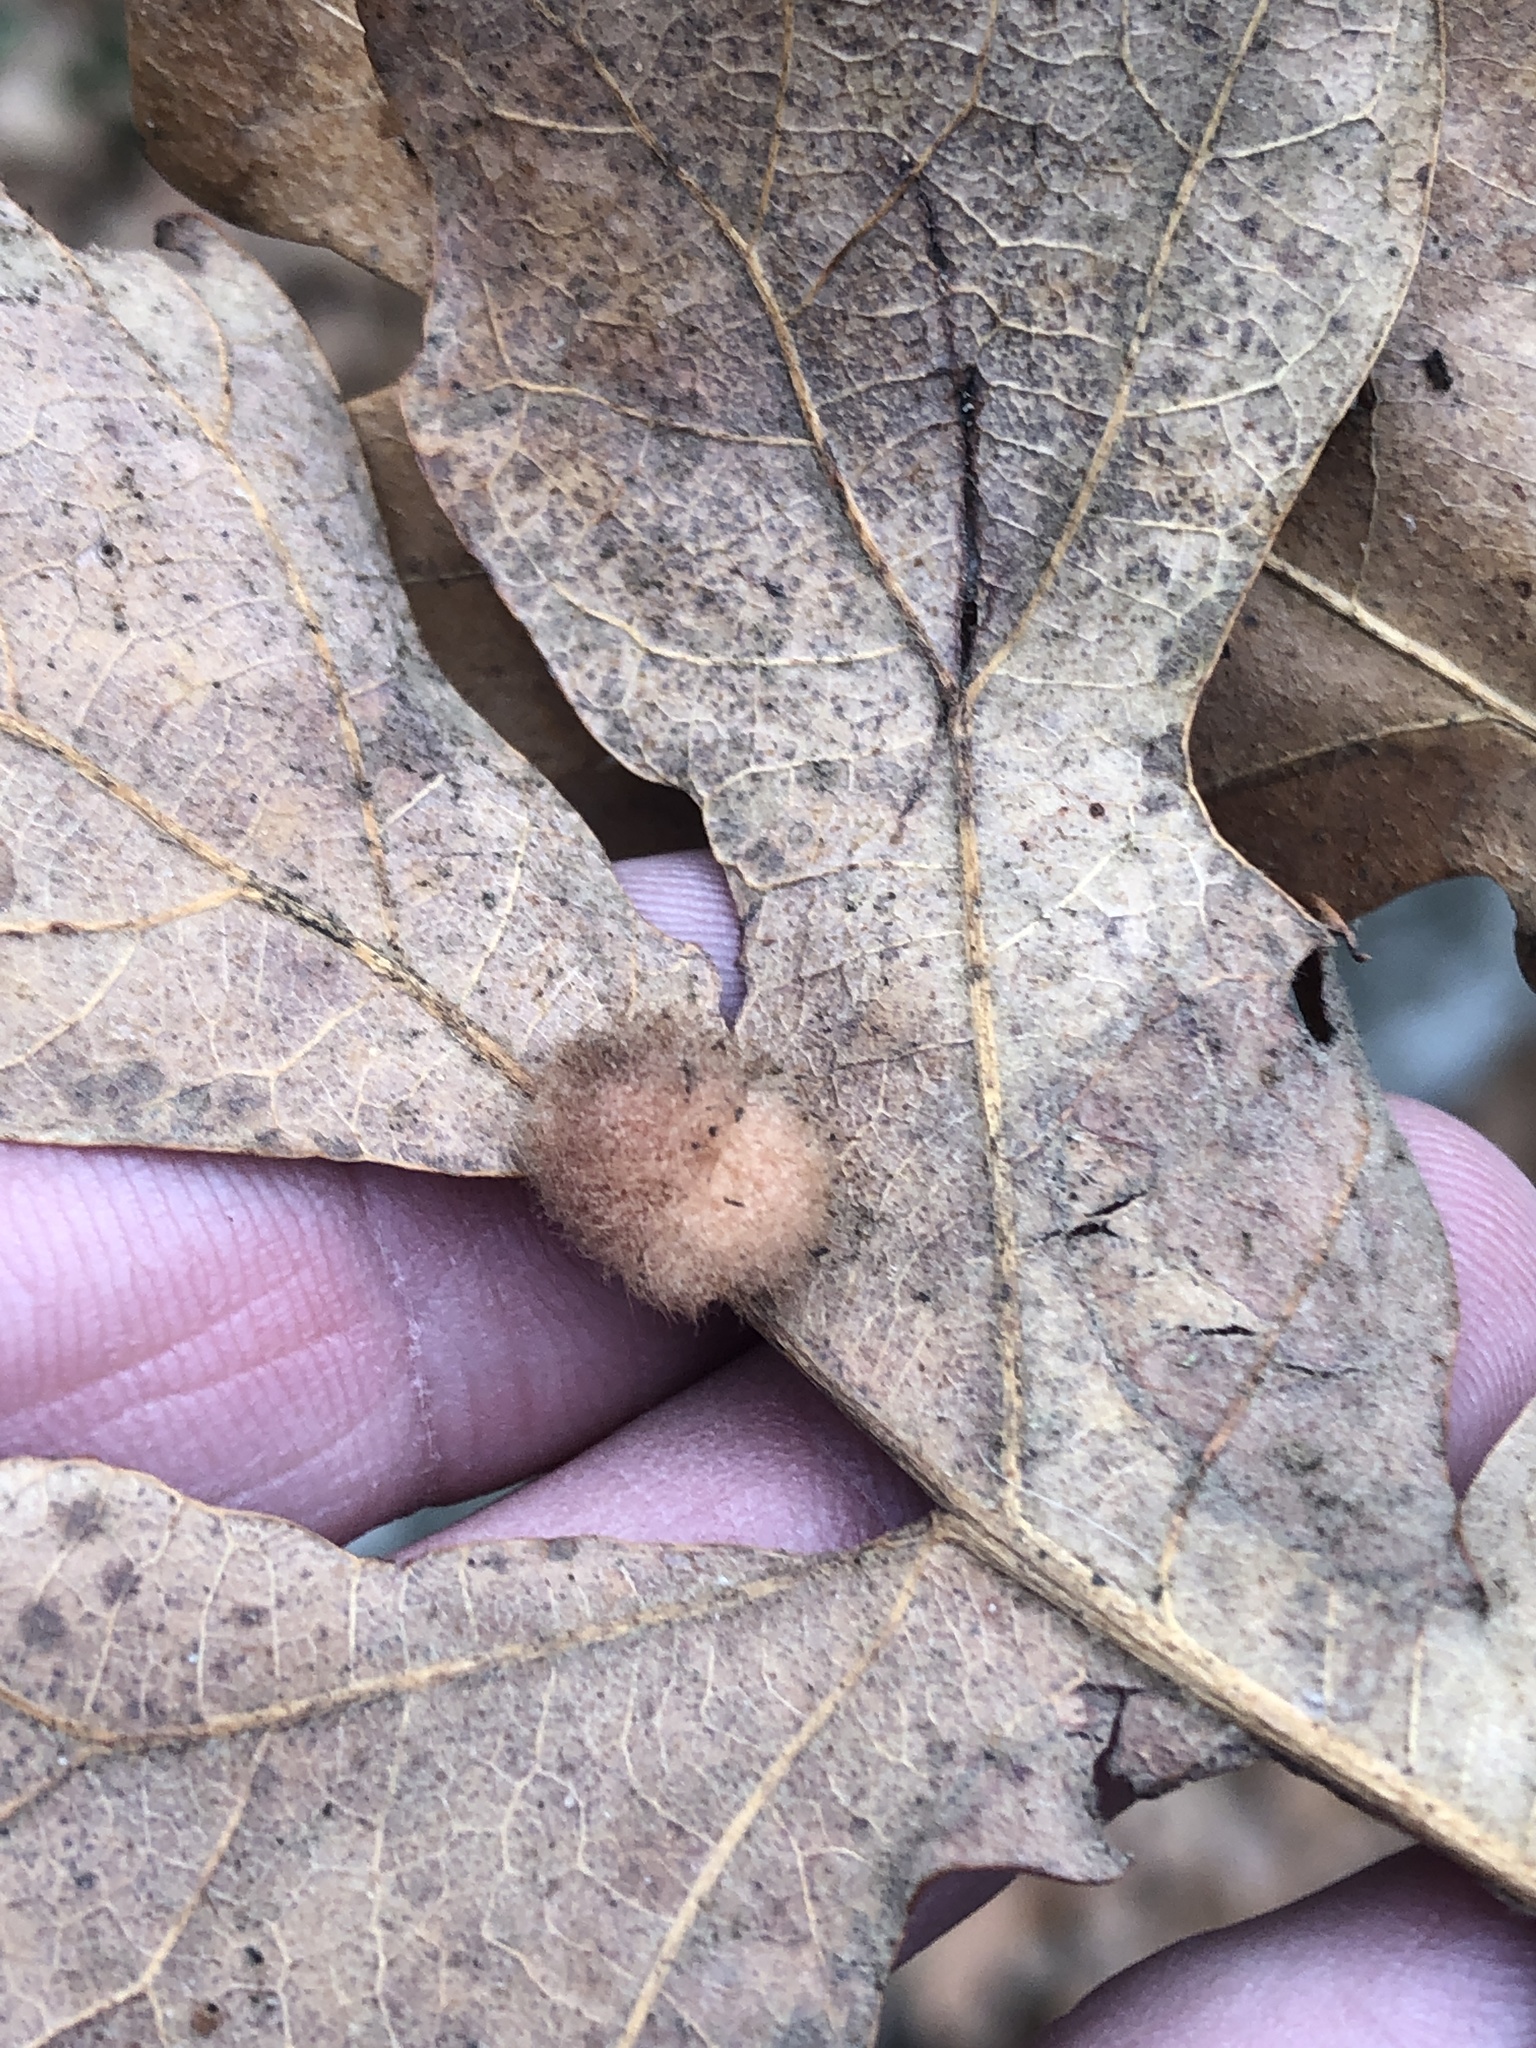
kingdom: Animalia
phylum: Arthropoda
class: Insecta
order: Hymenoptera
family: Cynipidae
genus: Andricus
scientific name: Andricus Druon pattoni
